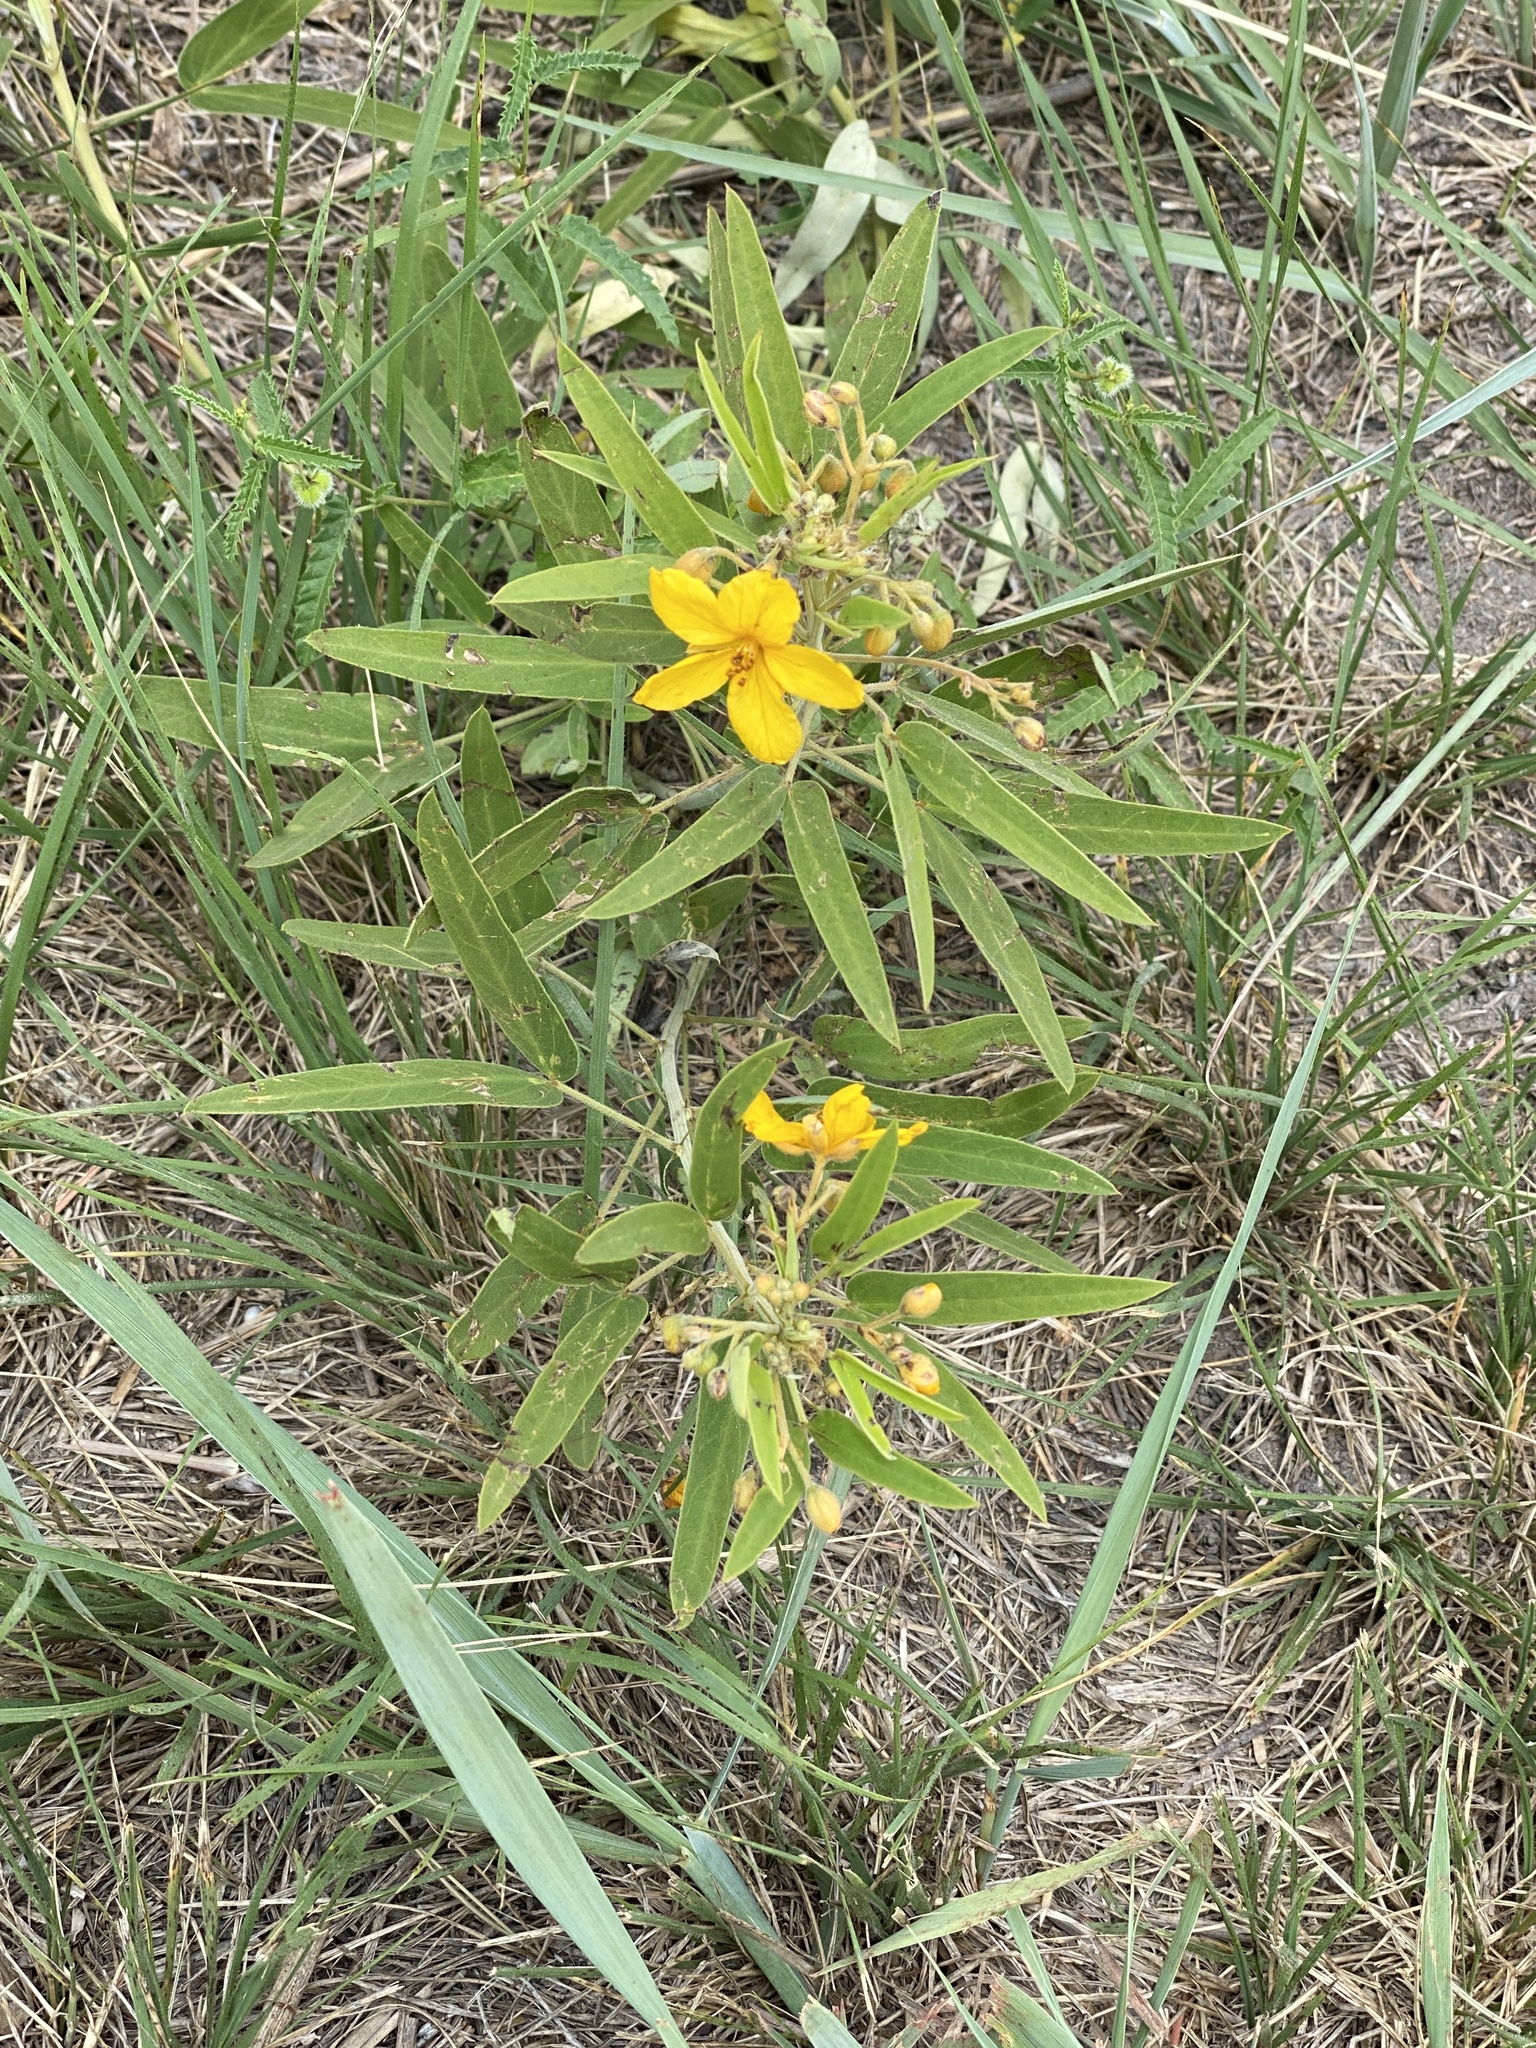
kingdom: Plantae
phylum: Tracheophyta
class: Magnoliopsida
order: Fabales
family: Fabaceae
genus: Senna
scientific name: Senna roemeriana
